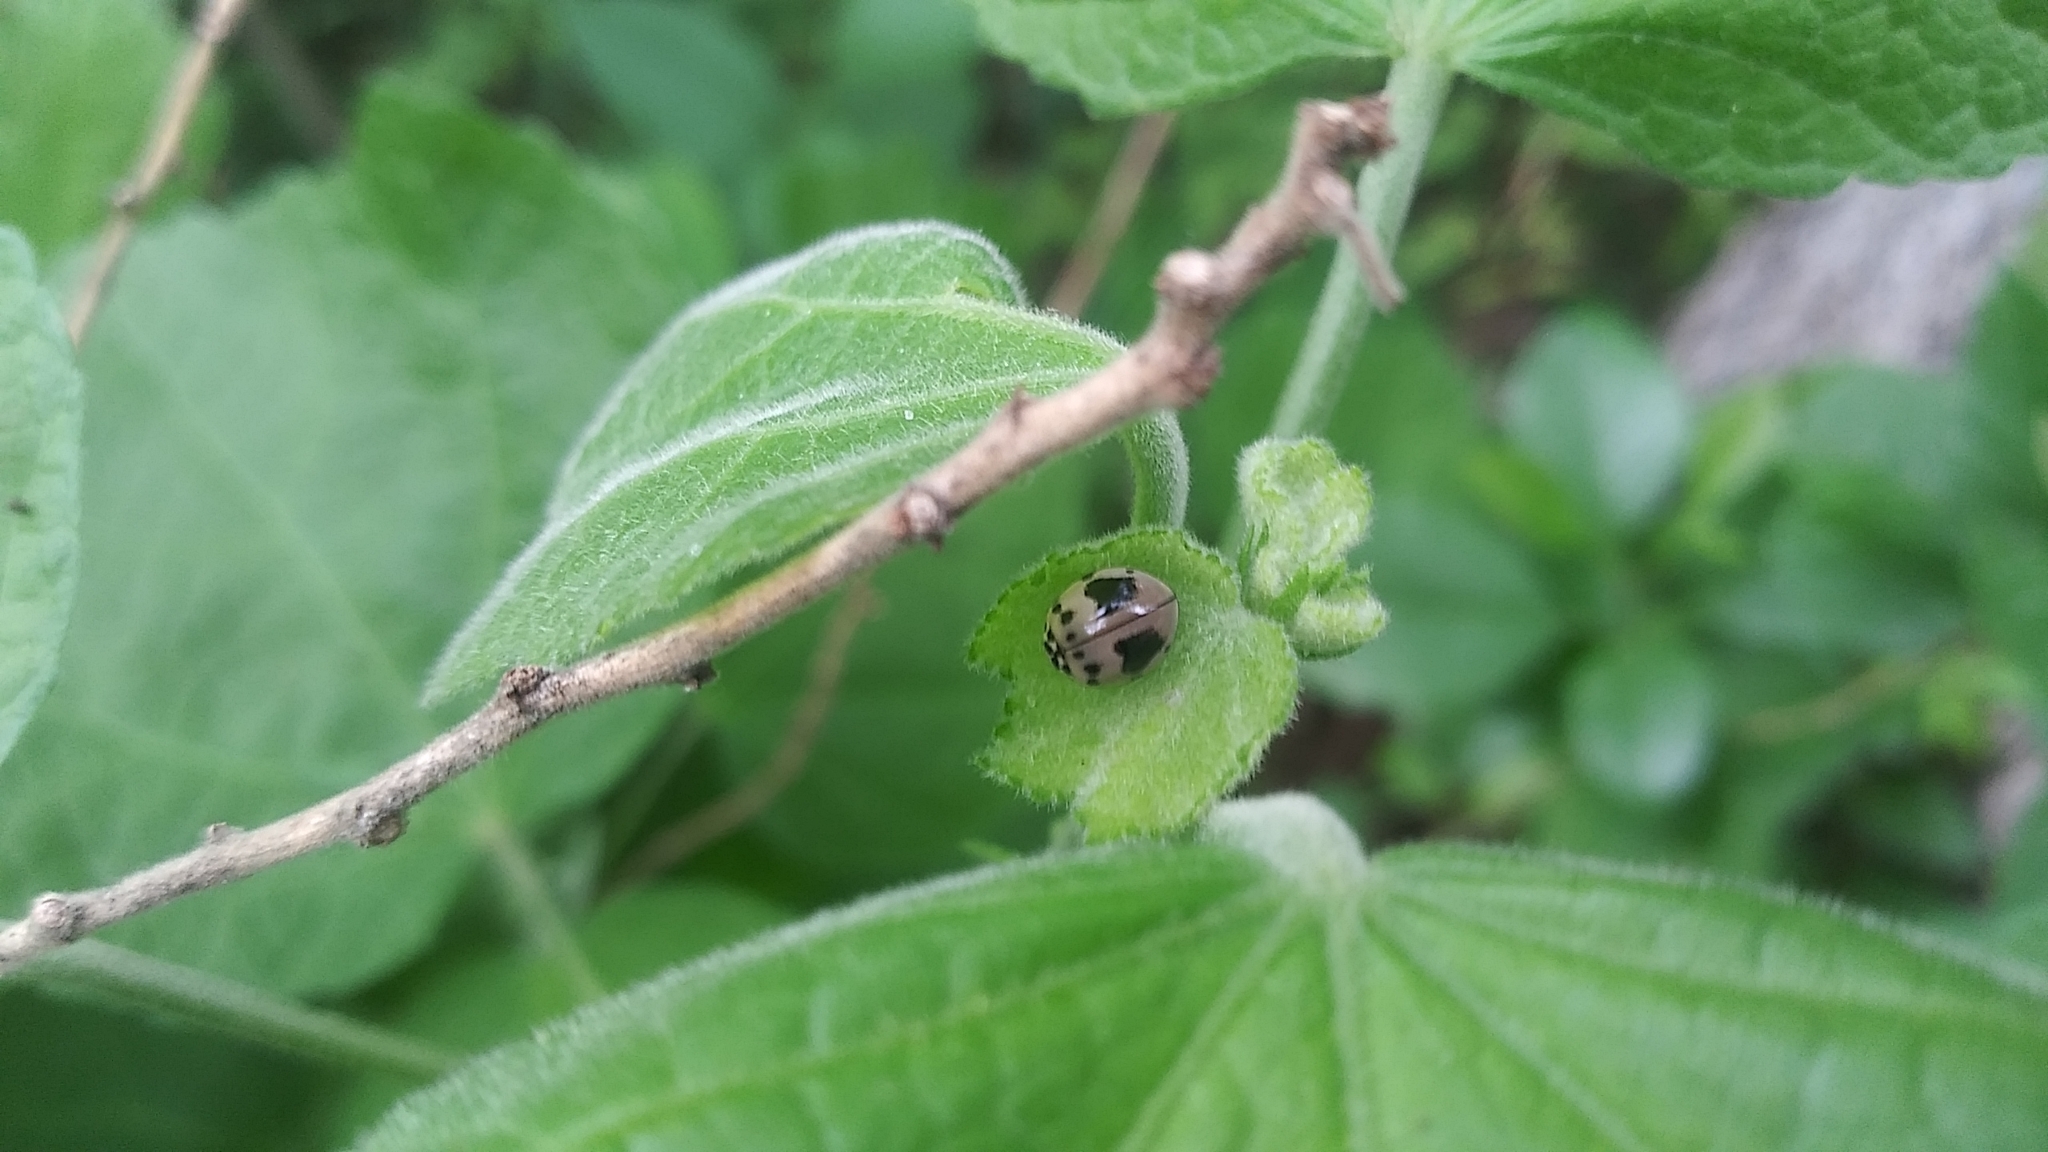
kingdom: Animalia
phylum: Arthropoda
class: Insecta
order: Coleoptera
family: Coccinellidae
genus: Olla
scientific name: Olla v-nigrum
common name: Ashy gray lady beetle
